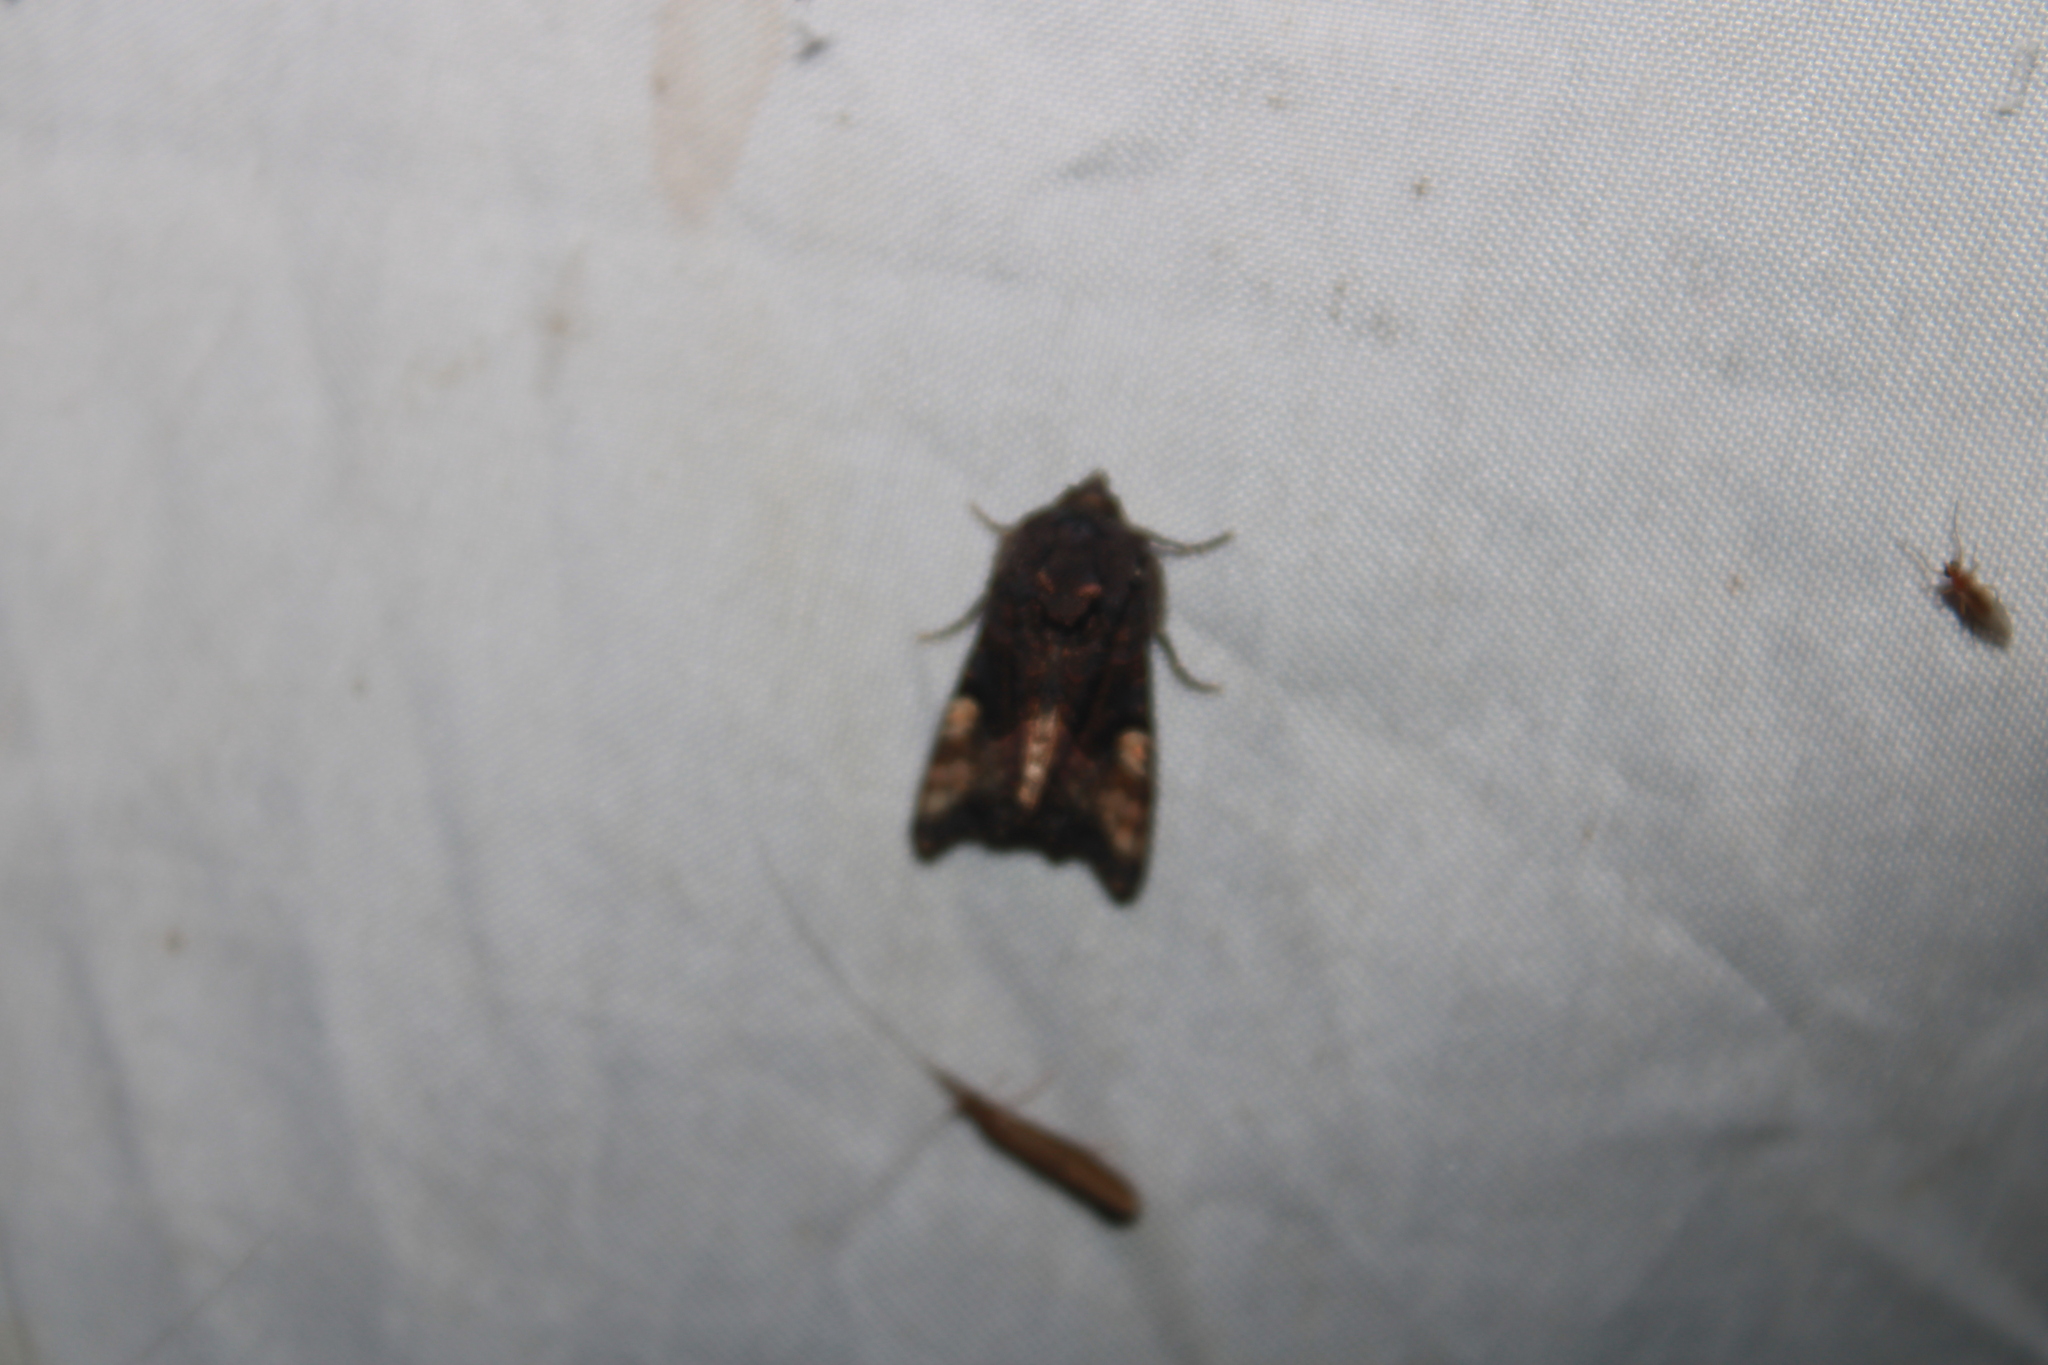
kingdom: Animalia
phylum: Arthropoda
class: Insecta
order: Lepidoptera
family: Noctuidae
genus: Euplexia
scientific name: Euplexia benesimilis
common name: American angle shades
